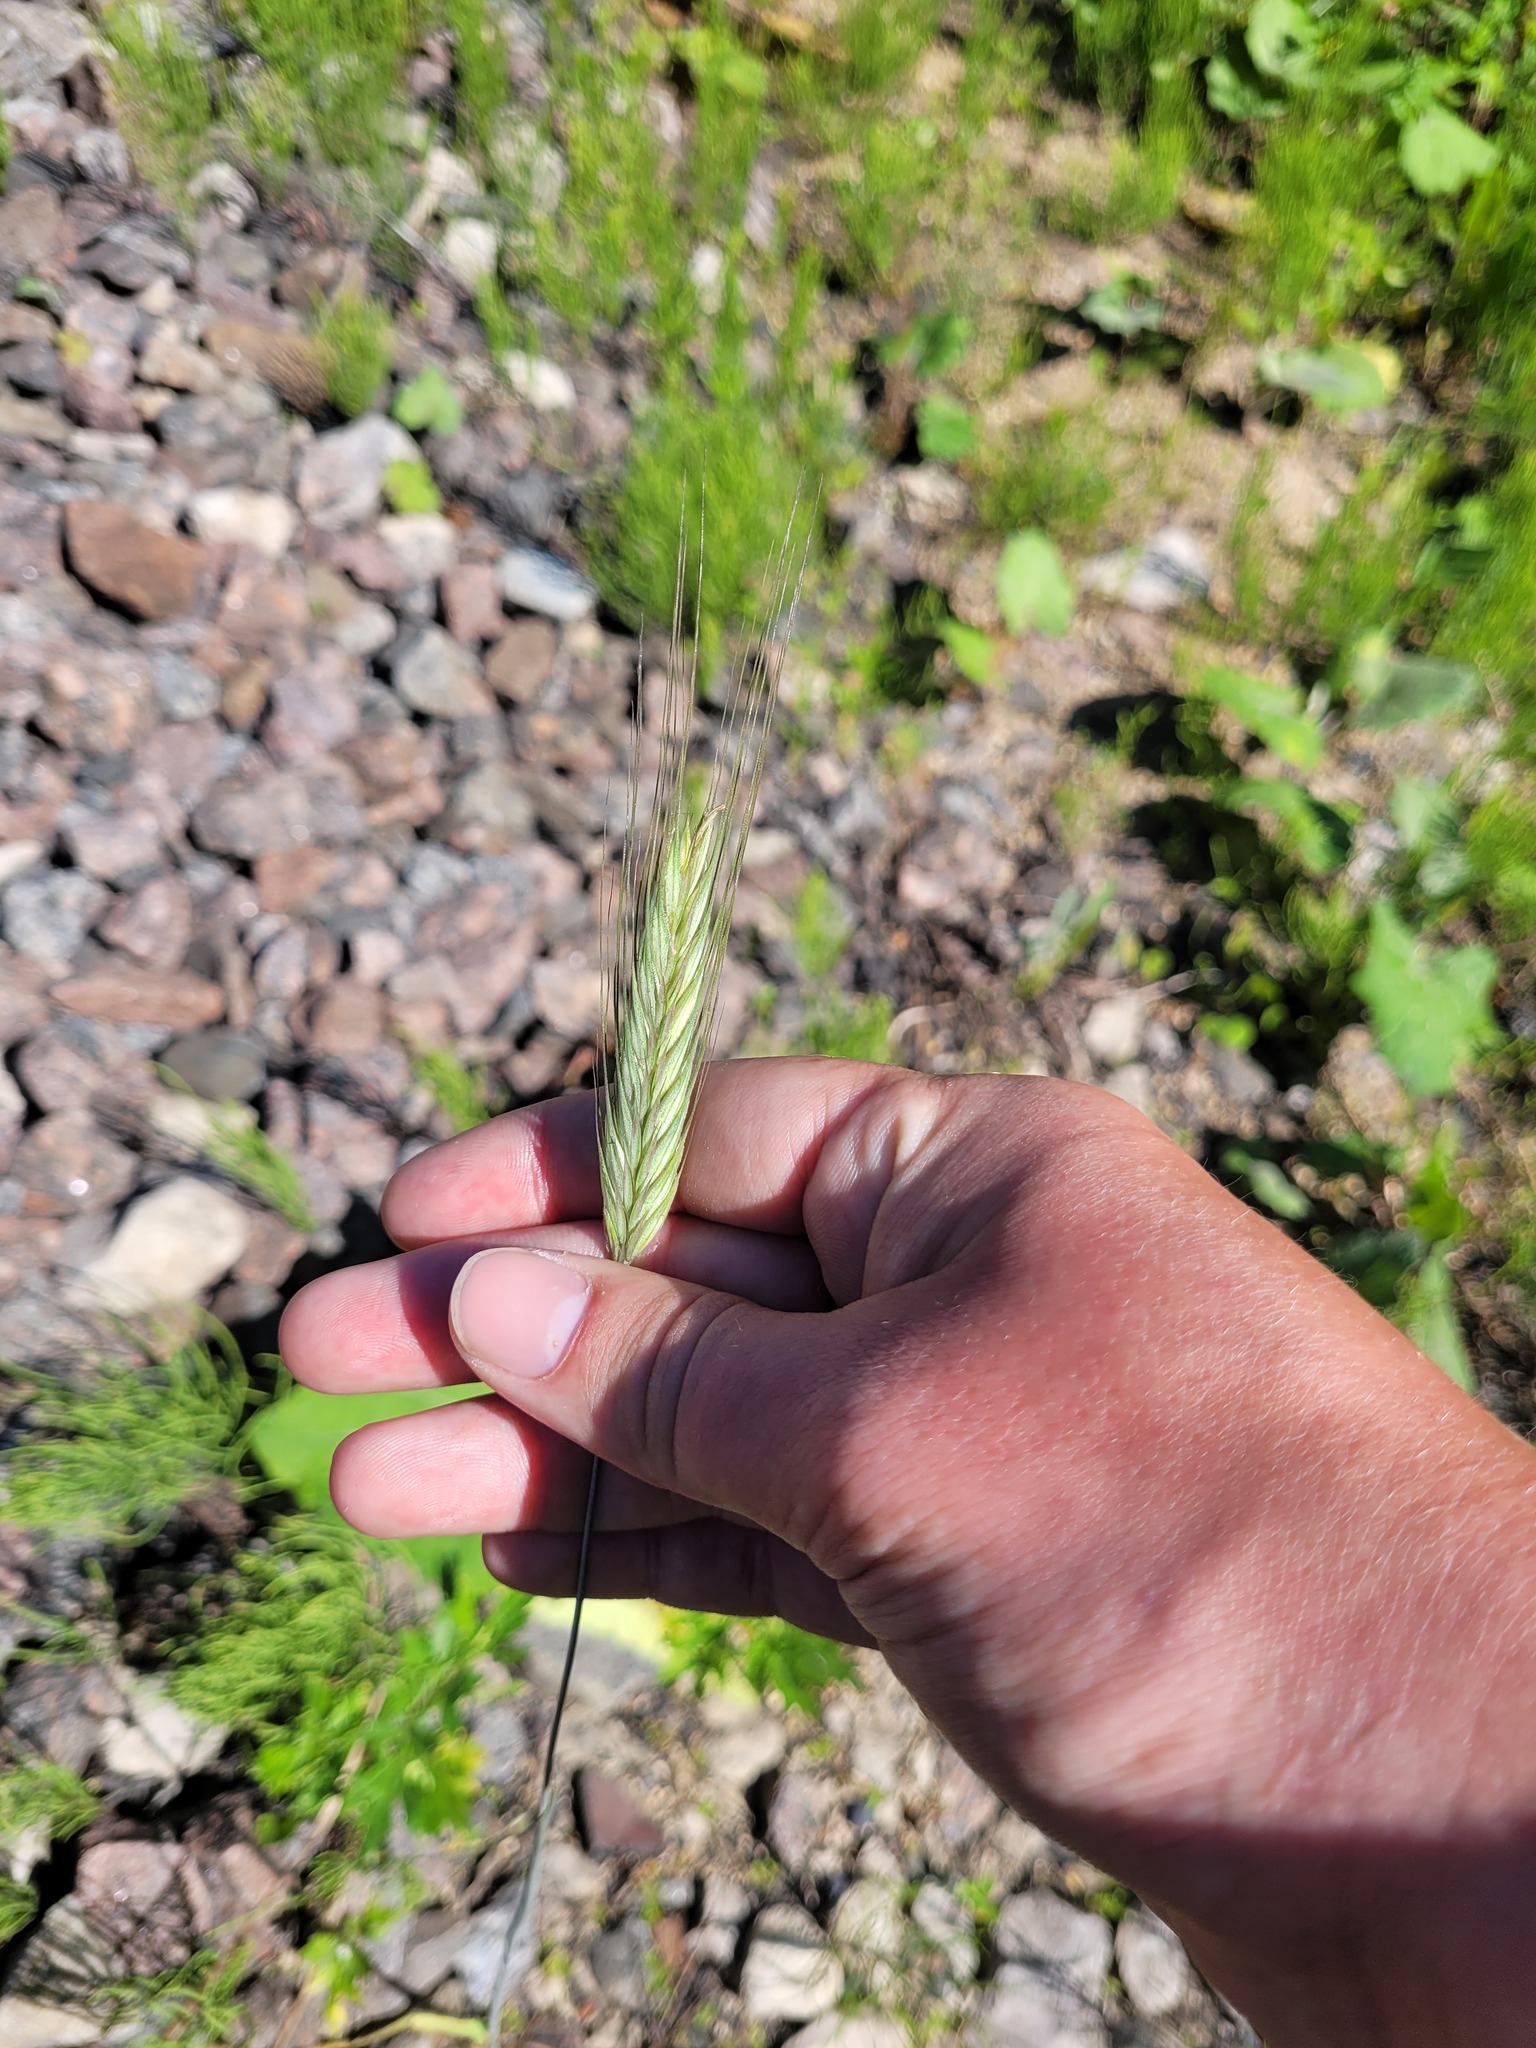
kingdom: Plantae
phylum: Tracheophyta
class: Liliopsida
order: Poales
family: Poaceae
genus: Secale
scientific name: Secale cereale
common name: Rye
